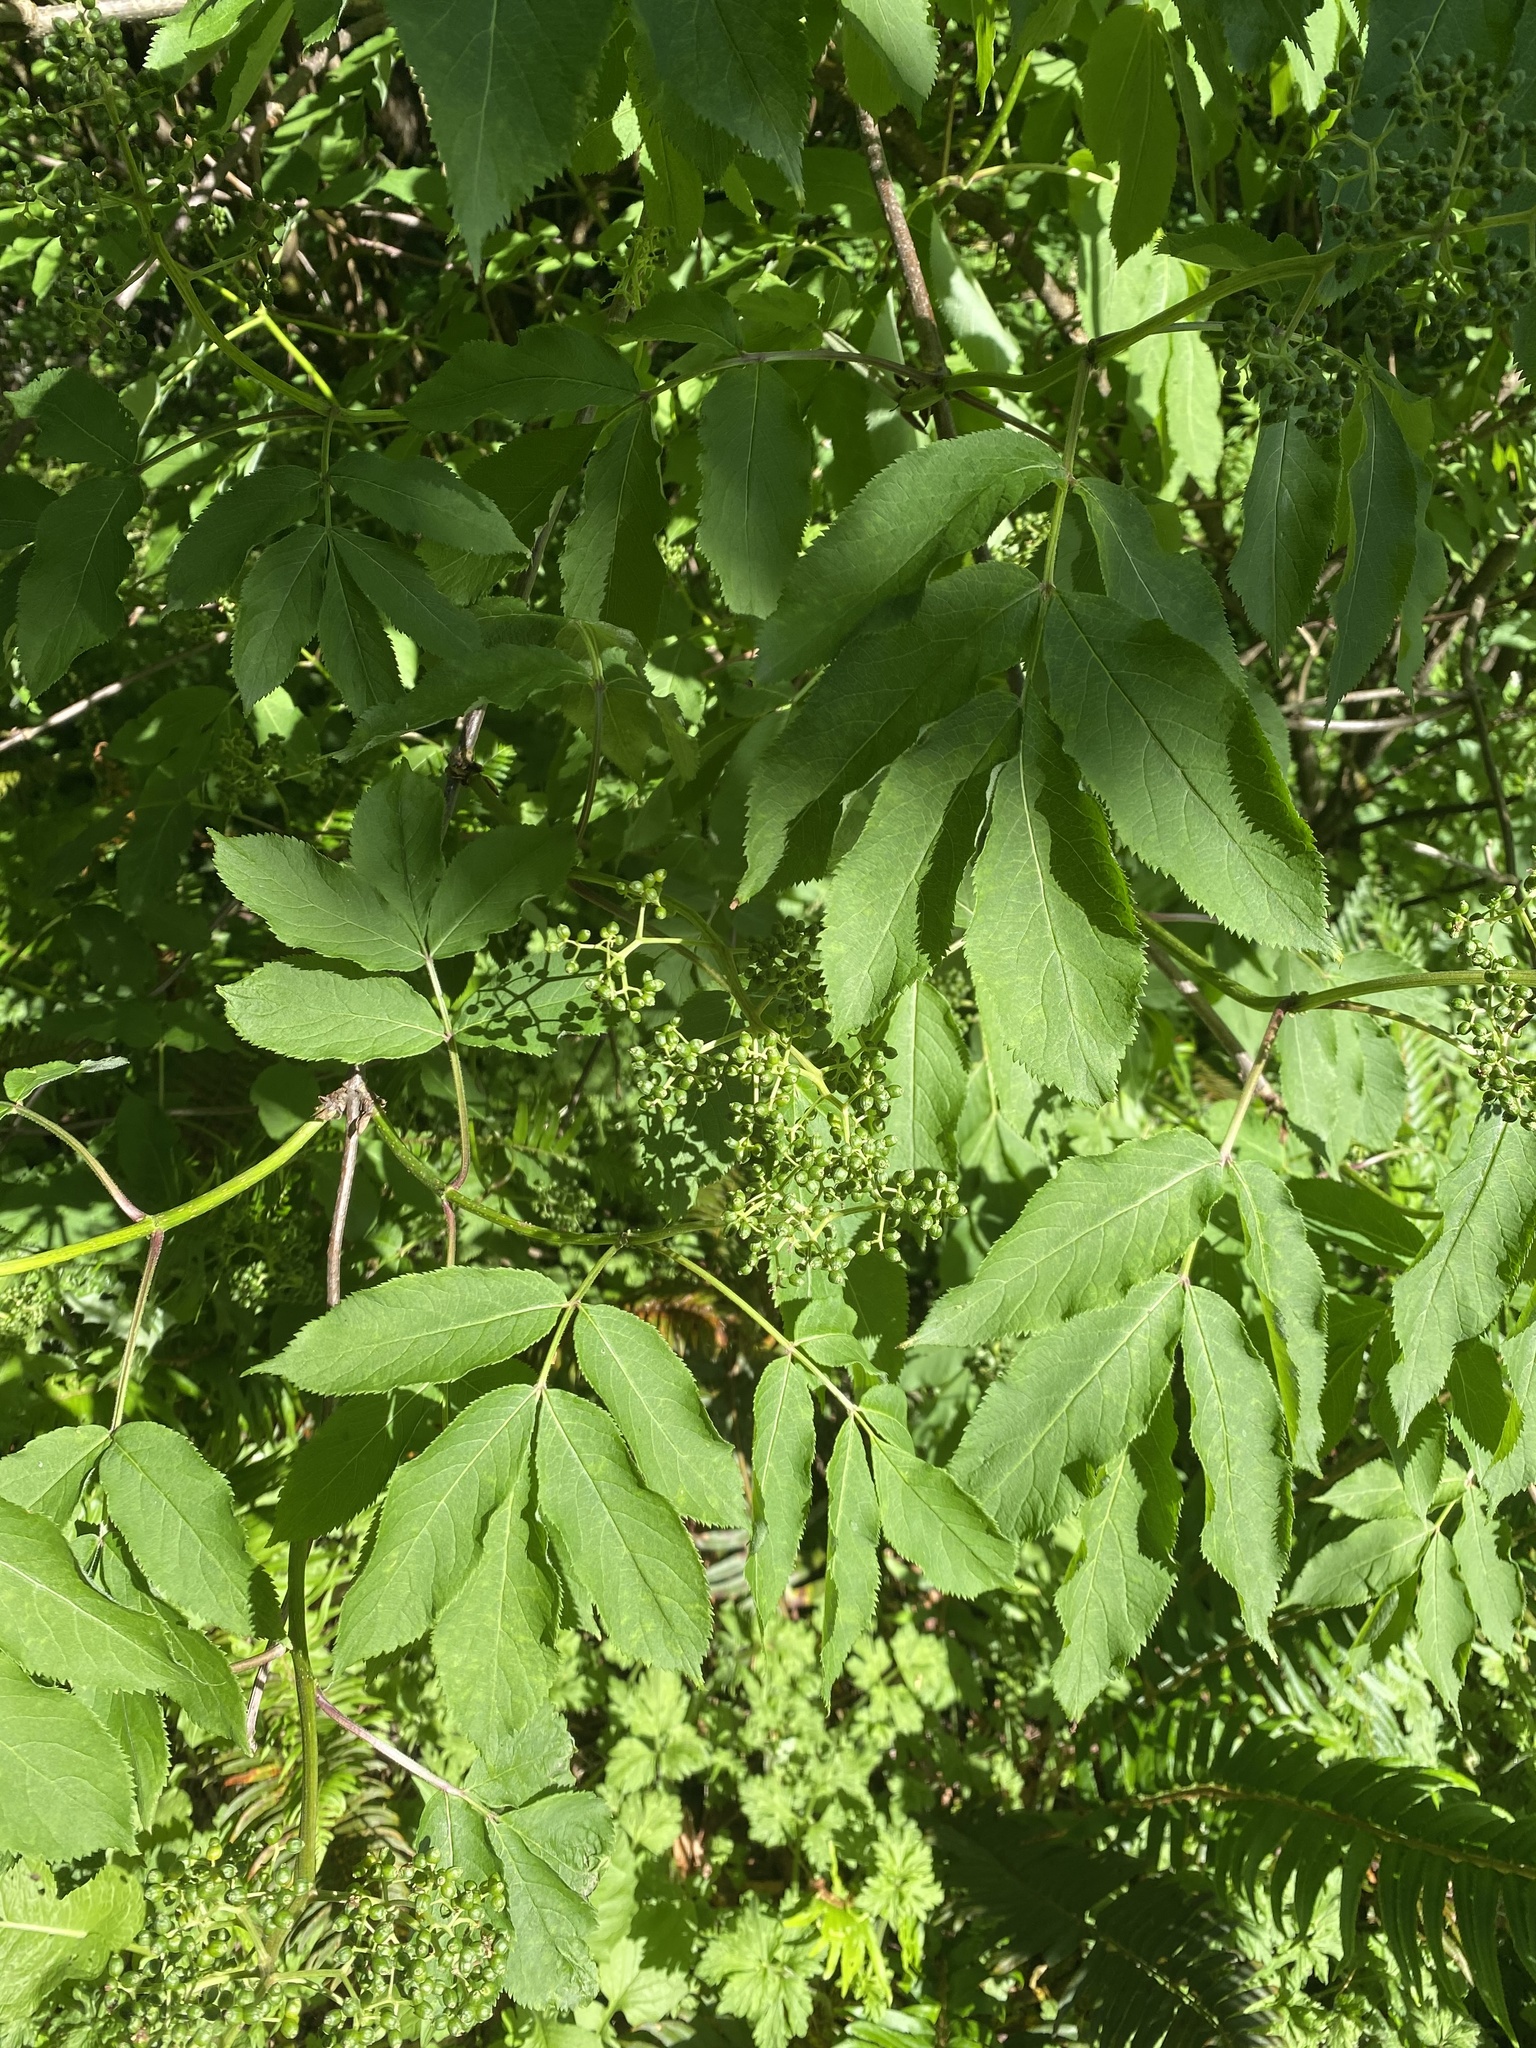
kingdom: Plantae
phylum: Tracheophyta
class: Magnoliopsida
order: Dipsacales
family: Viburnaceae
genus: Sambucus
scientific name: Sambucus racemosa
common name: Red-berried elder
